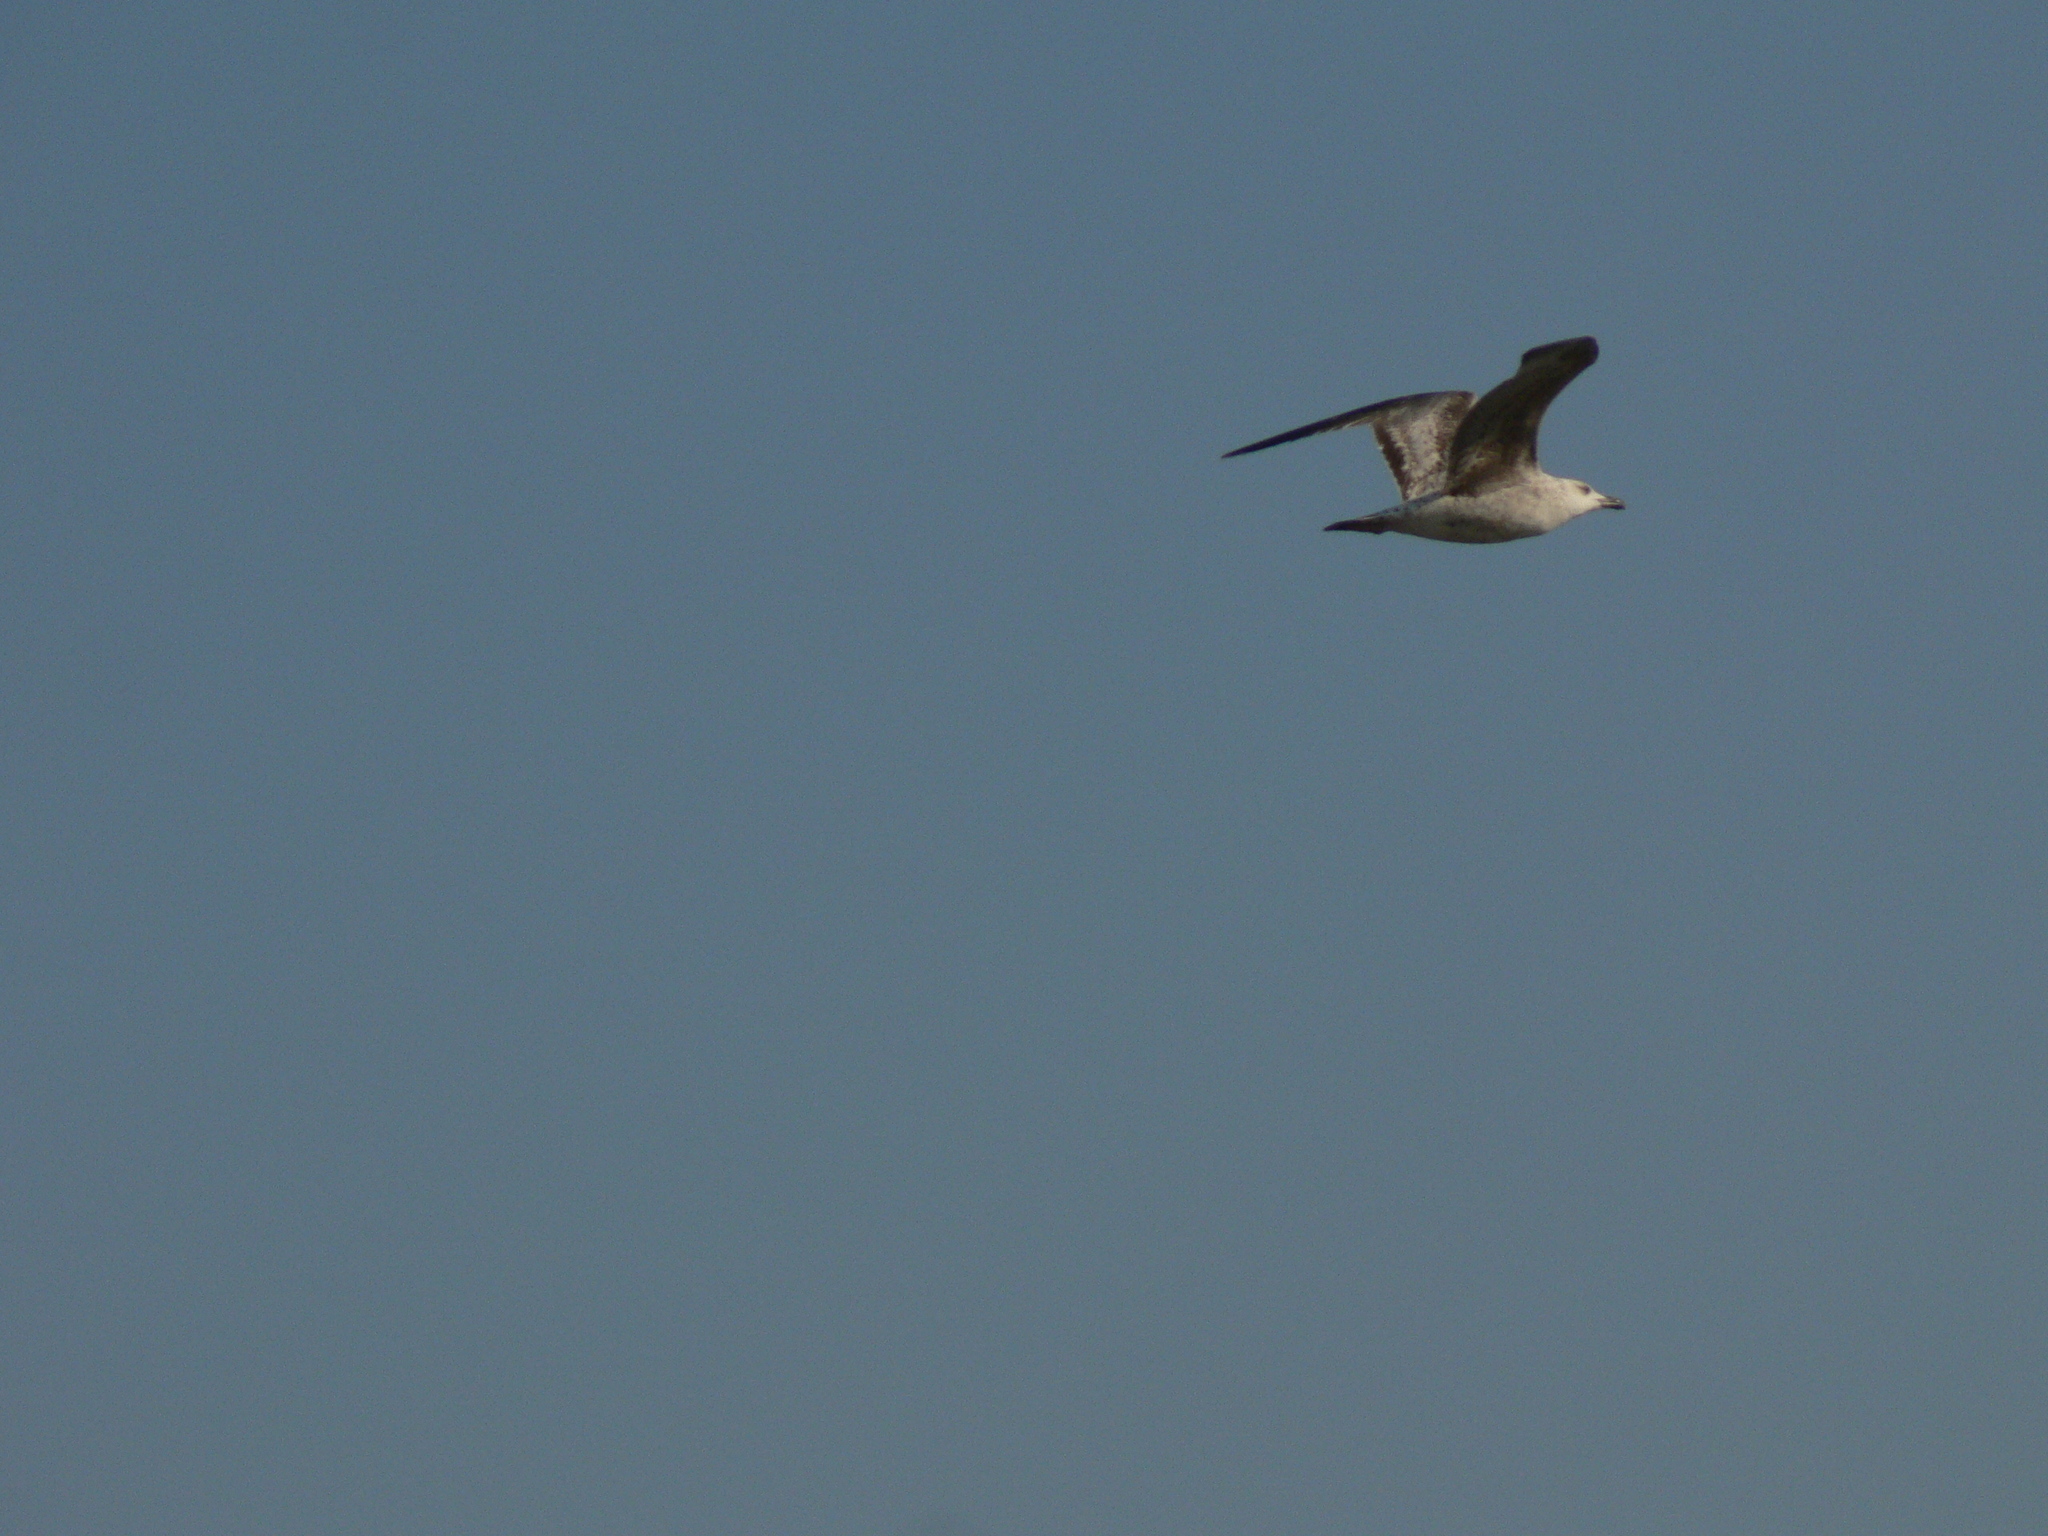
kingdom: Animalia
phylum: Chordata
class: Aves
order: Charadriiformes
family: Laridae
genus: Larus
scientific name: Larus michahellis
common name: Yellow-legged gull
